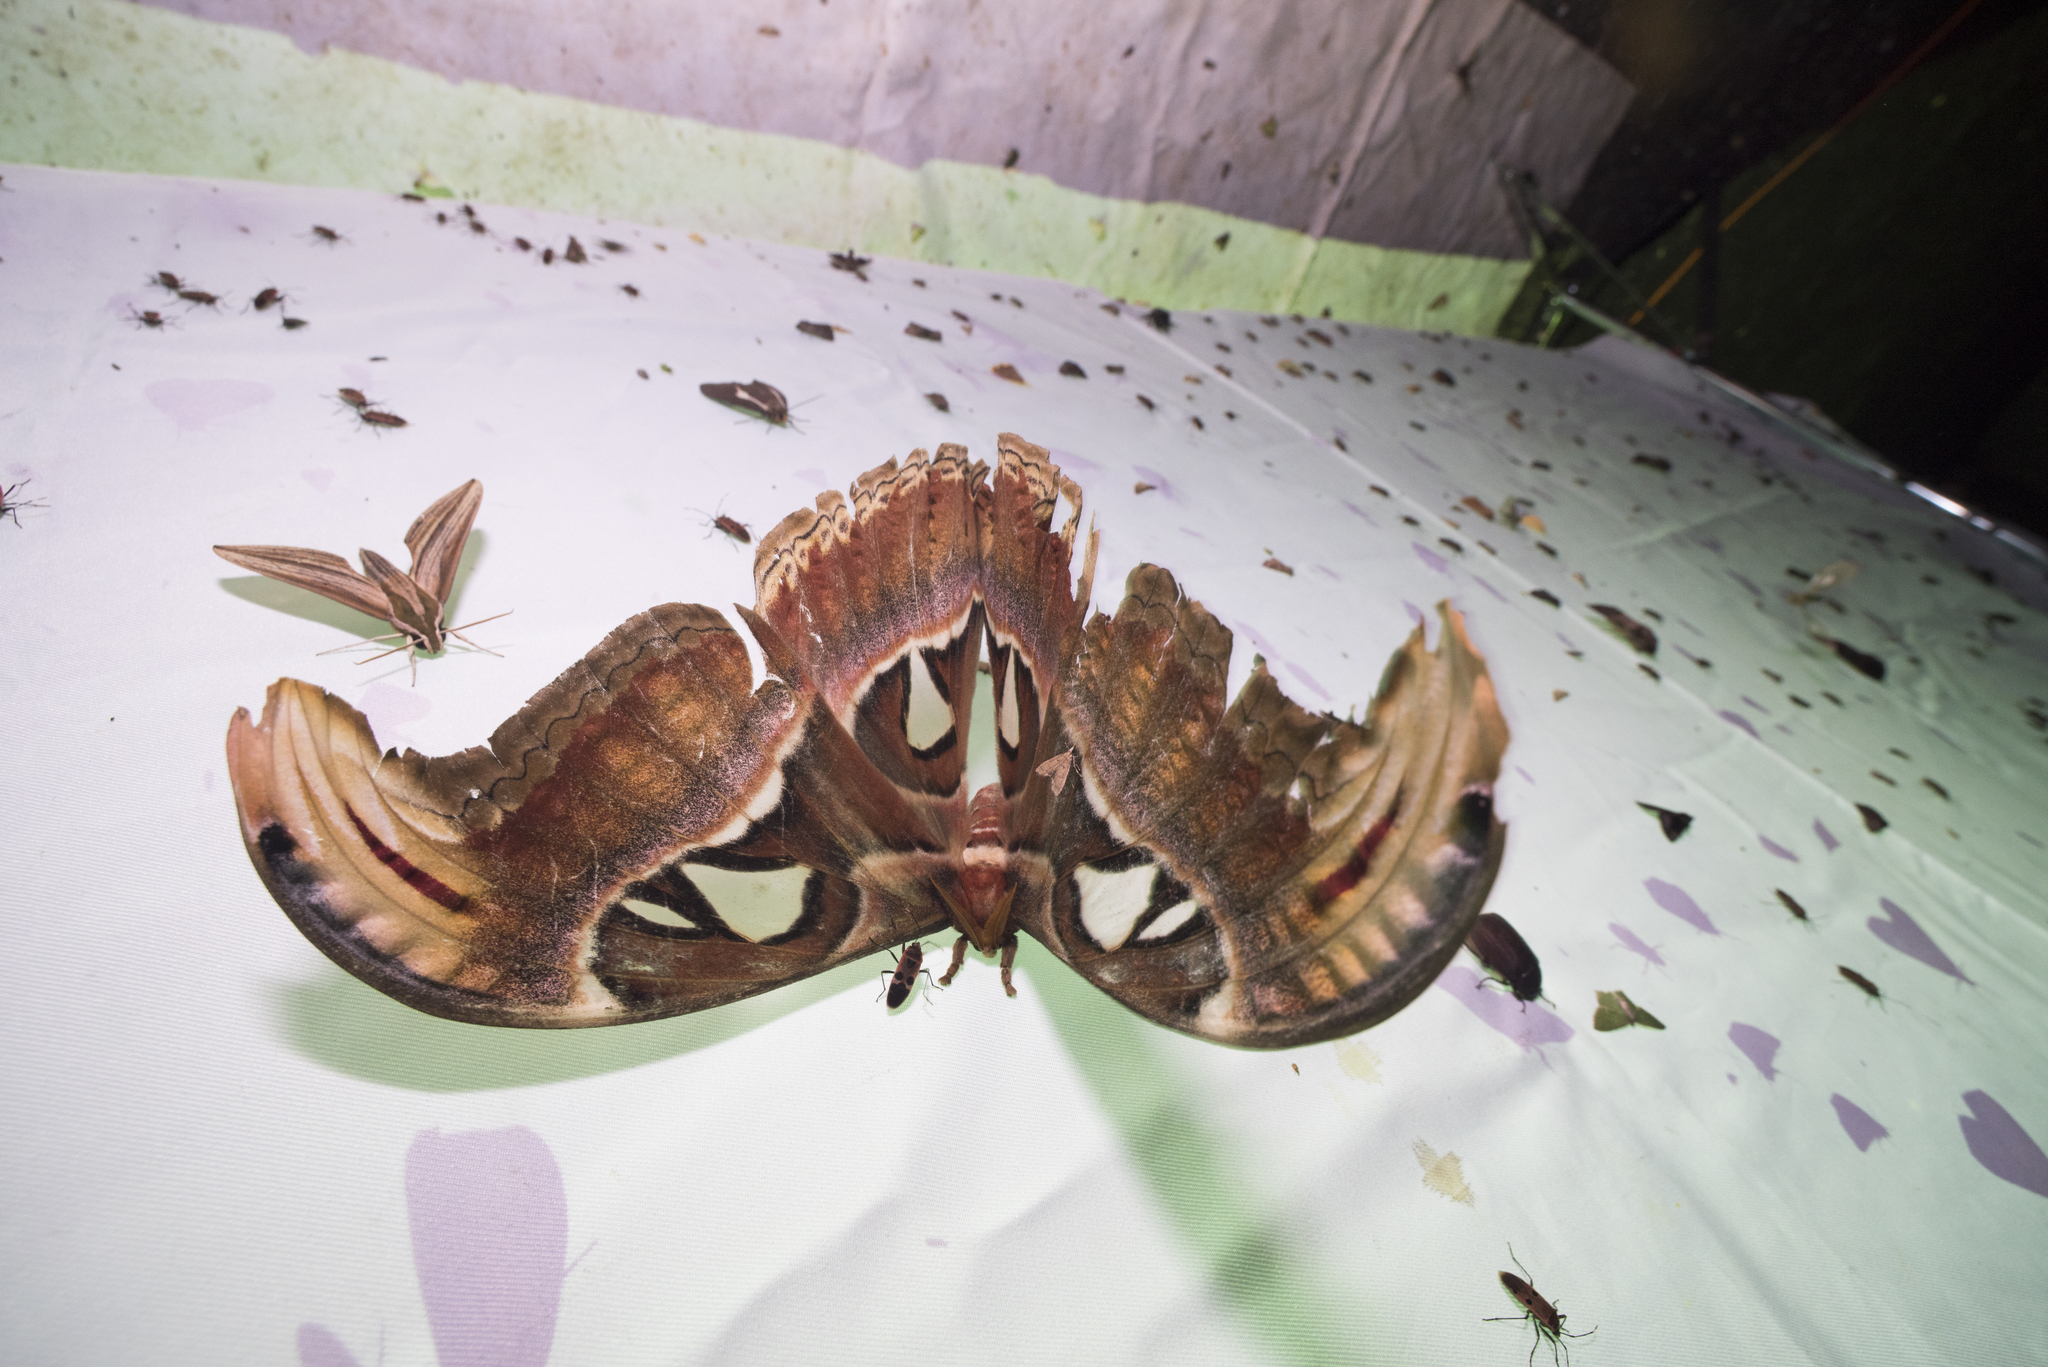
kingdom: Animalia
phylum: Arthropoda
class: Insecta
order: Lepidoptera
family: Saturniidae
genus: Attacus
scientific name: Attacus atlas
